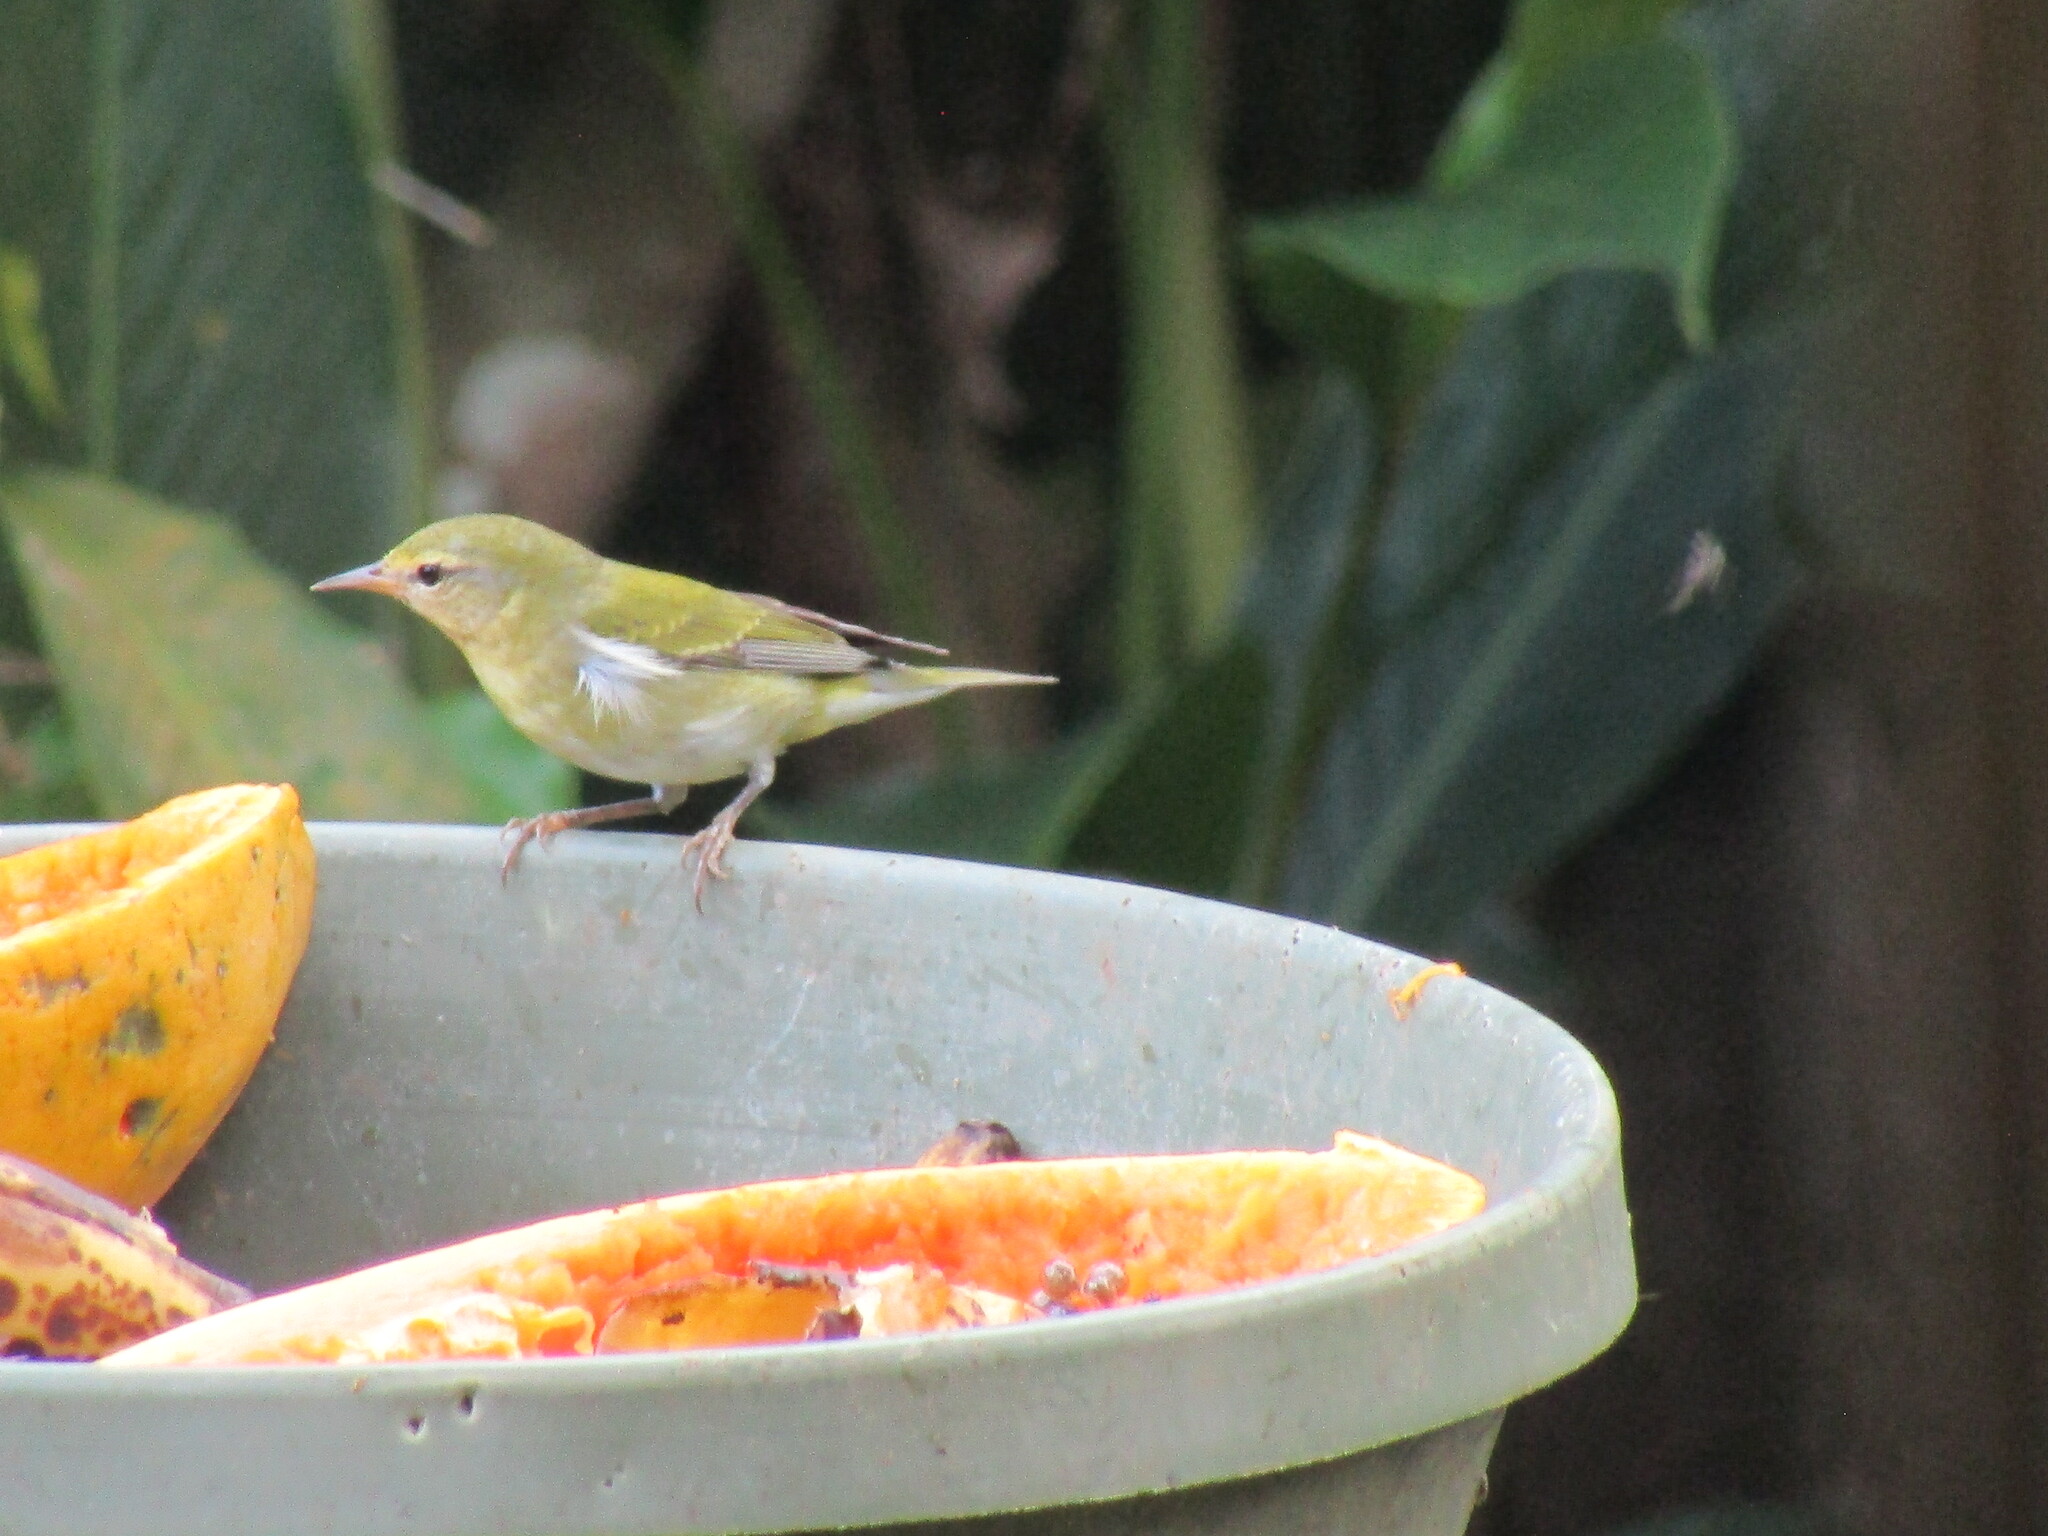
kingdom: Animalia
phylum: Chordata
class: Aves
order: Passeriformes
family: Parulidae
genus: Leiothlypis
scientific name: Leiothlypis peregrina
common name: Tennessee warbler
